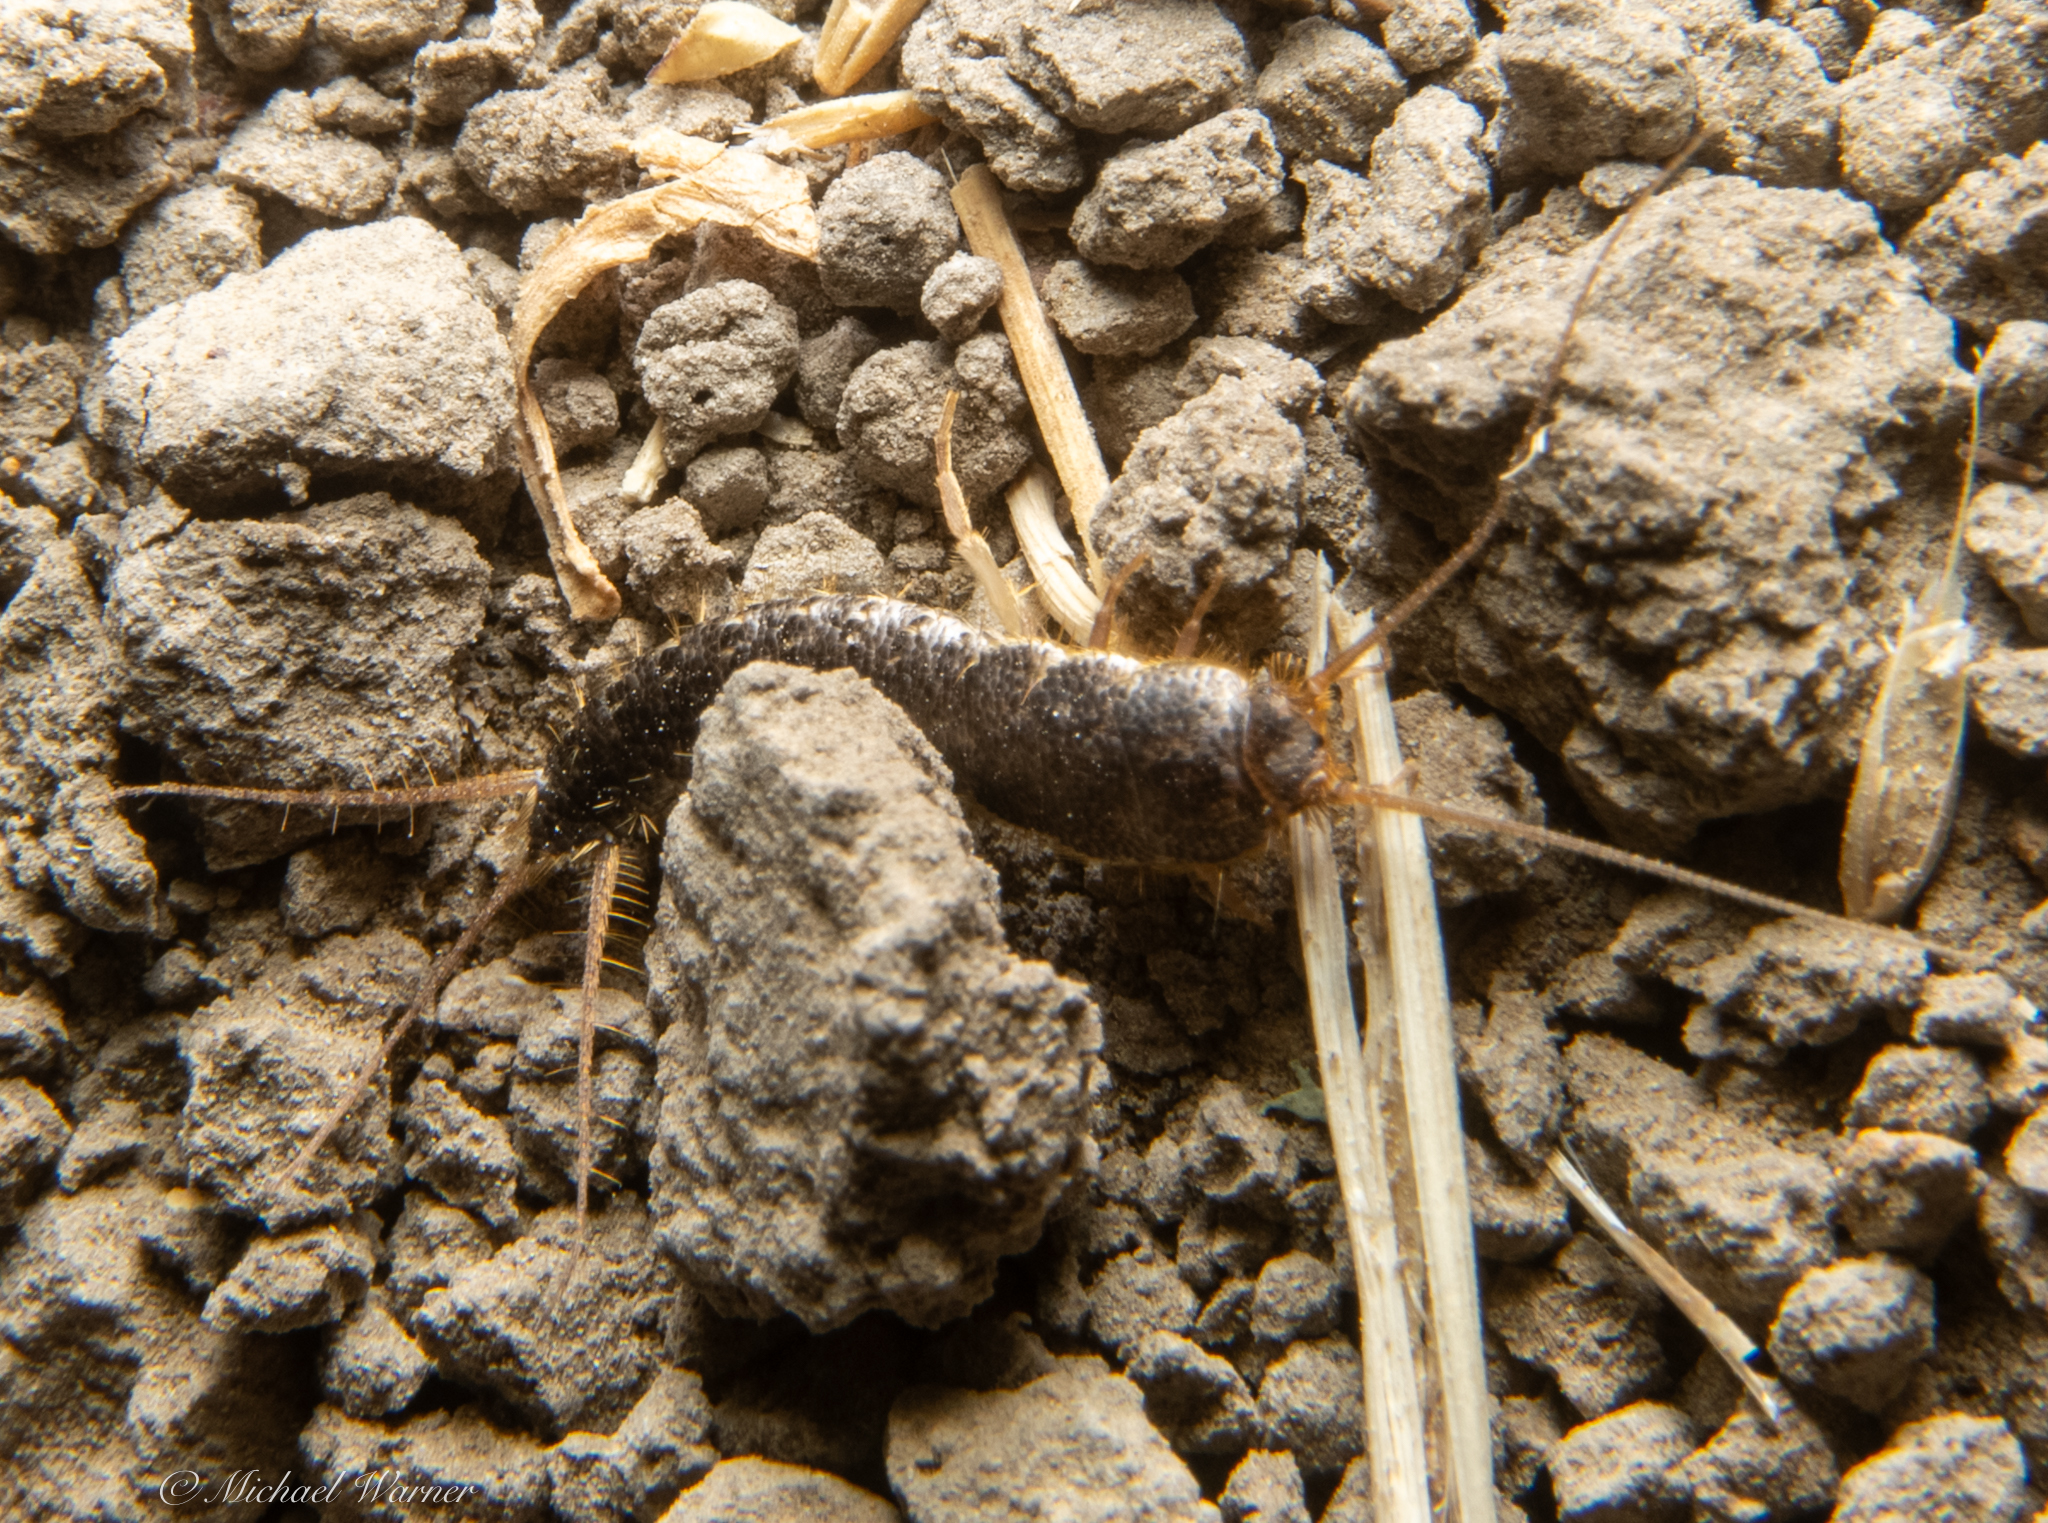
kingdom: Animalia
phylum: Arthropoda
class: Insecta
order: Zygentoma
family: Lepismatidae
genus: Allacrotelsa
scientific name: Allacrotelsa spinulata
